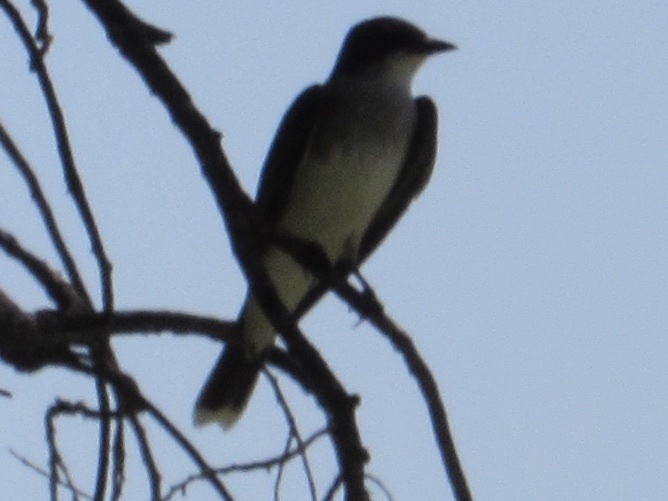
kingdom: Animalia
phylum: Chordata
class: Aves
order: Passeriformes
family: Tyrannidae
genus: Tyrannus
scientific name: Tyrannus tyrannus
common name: Eastern kingbird
